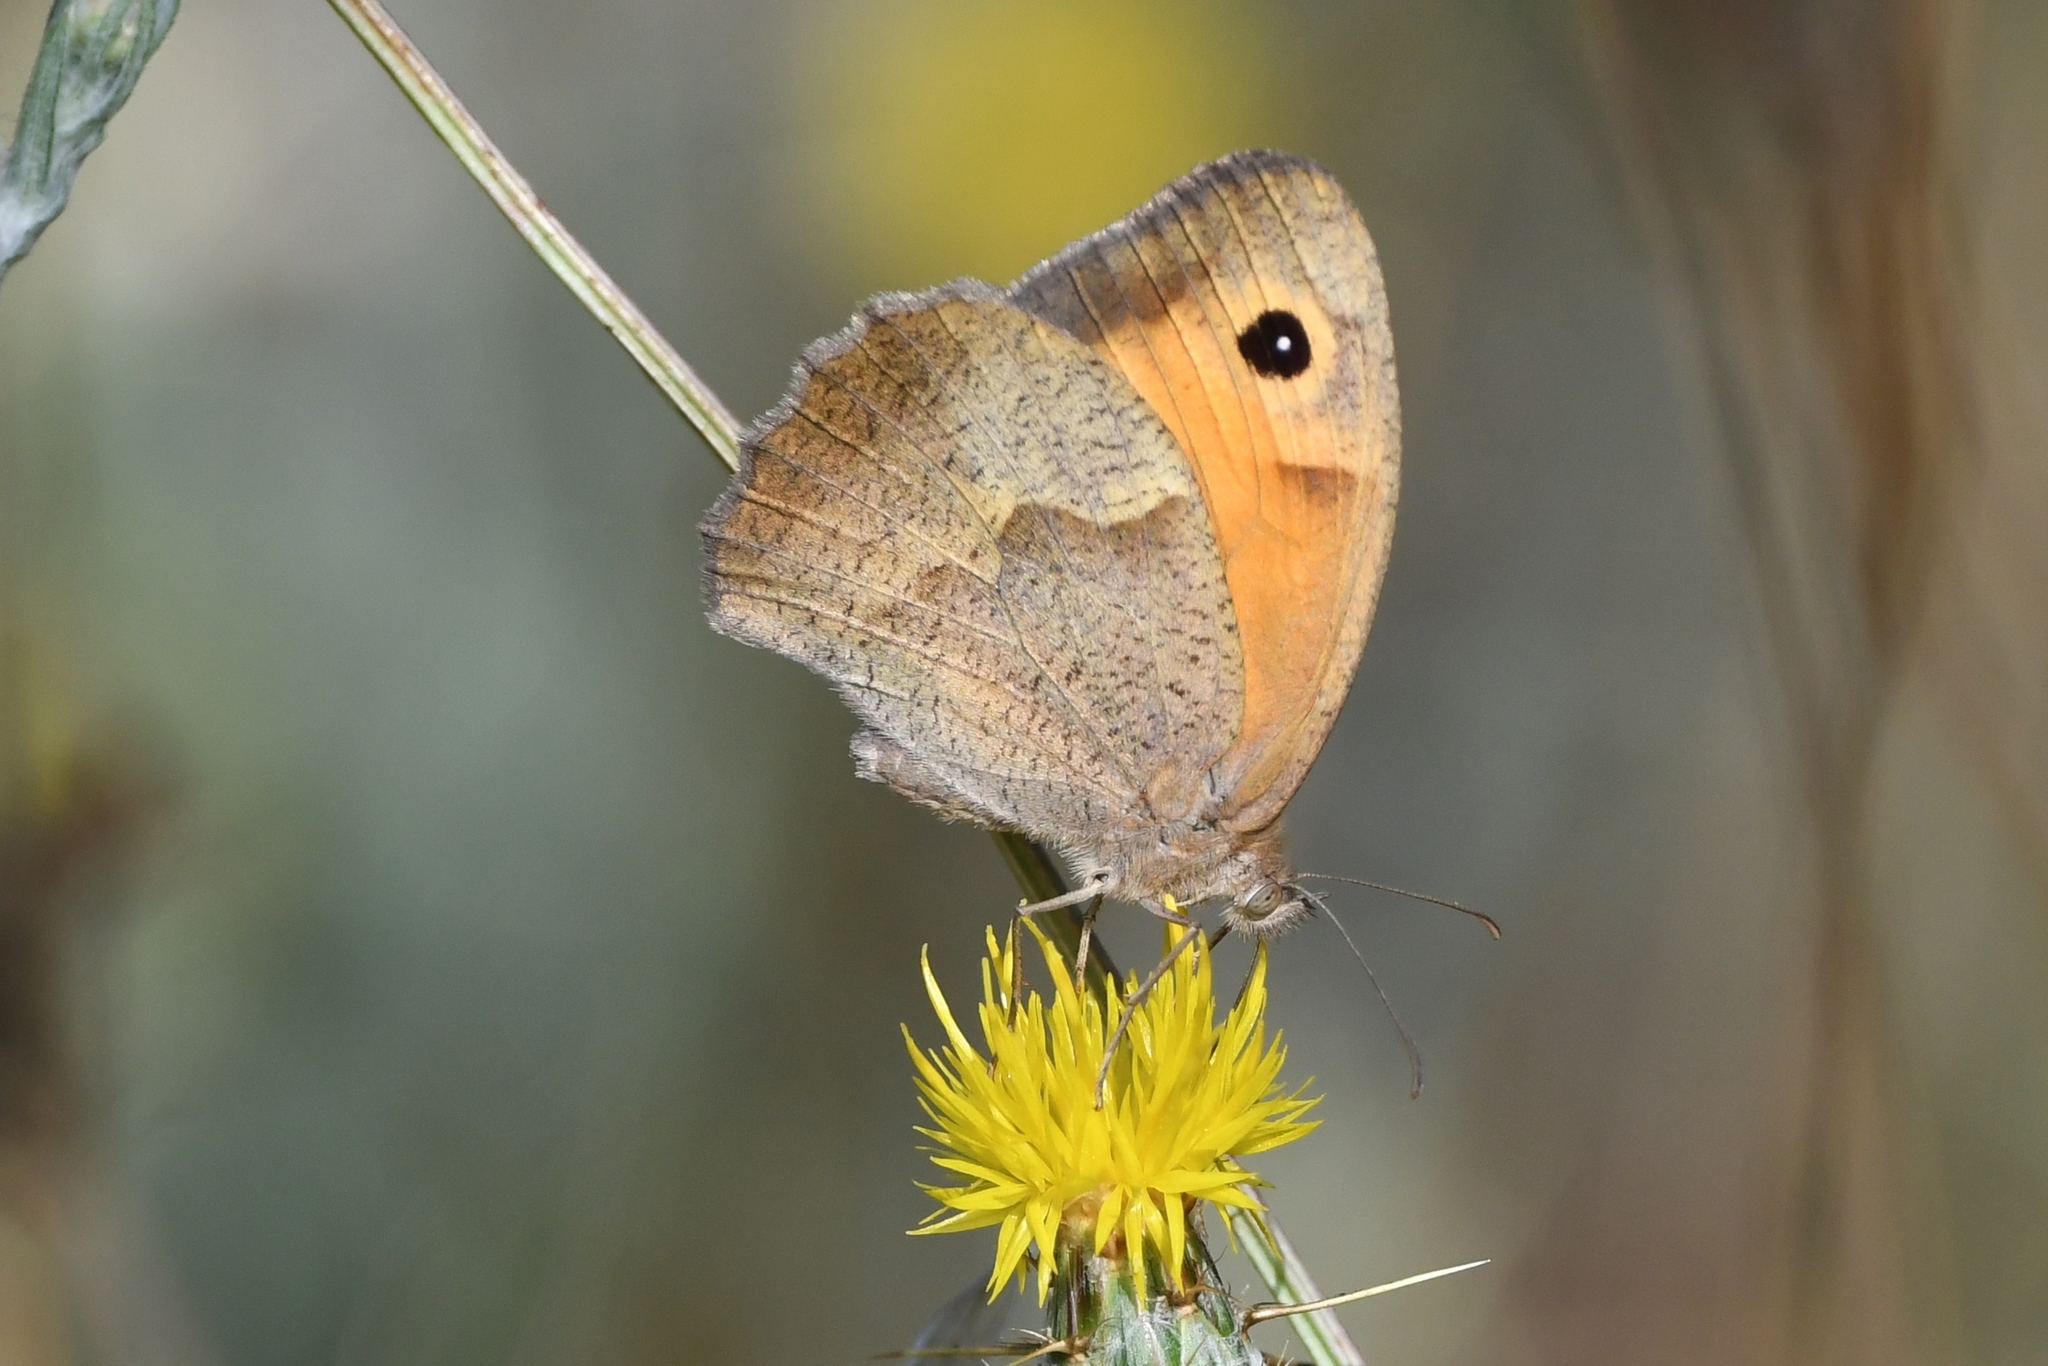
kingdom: Animalia
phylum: Arthropoda
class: Insecta
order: Lepidoptera
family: Nymphalidae
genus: Maniola
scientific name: Maniola jurtina
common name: Meadow brown
